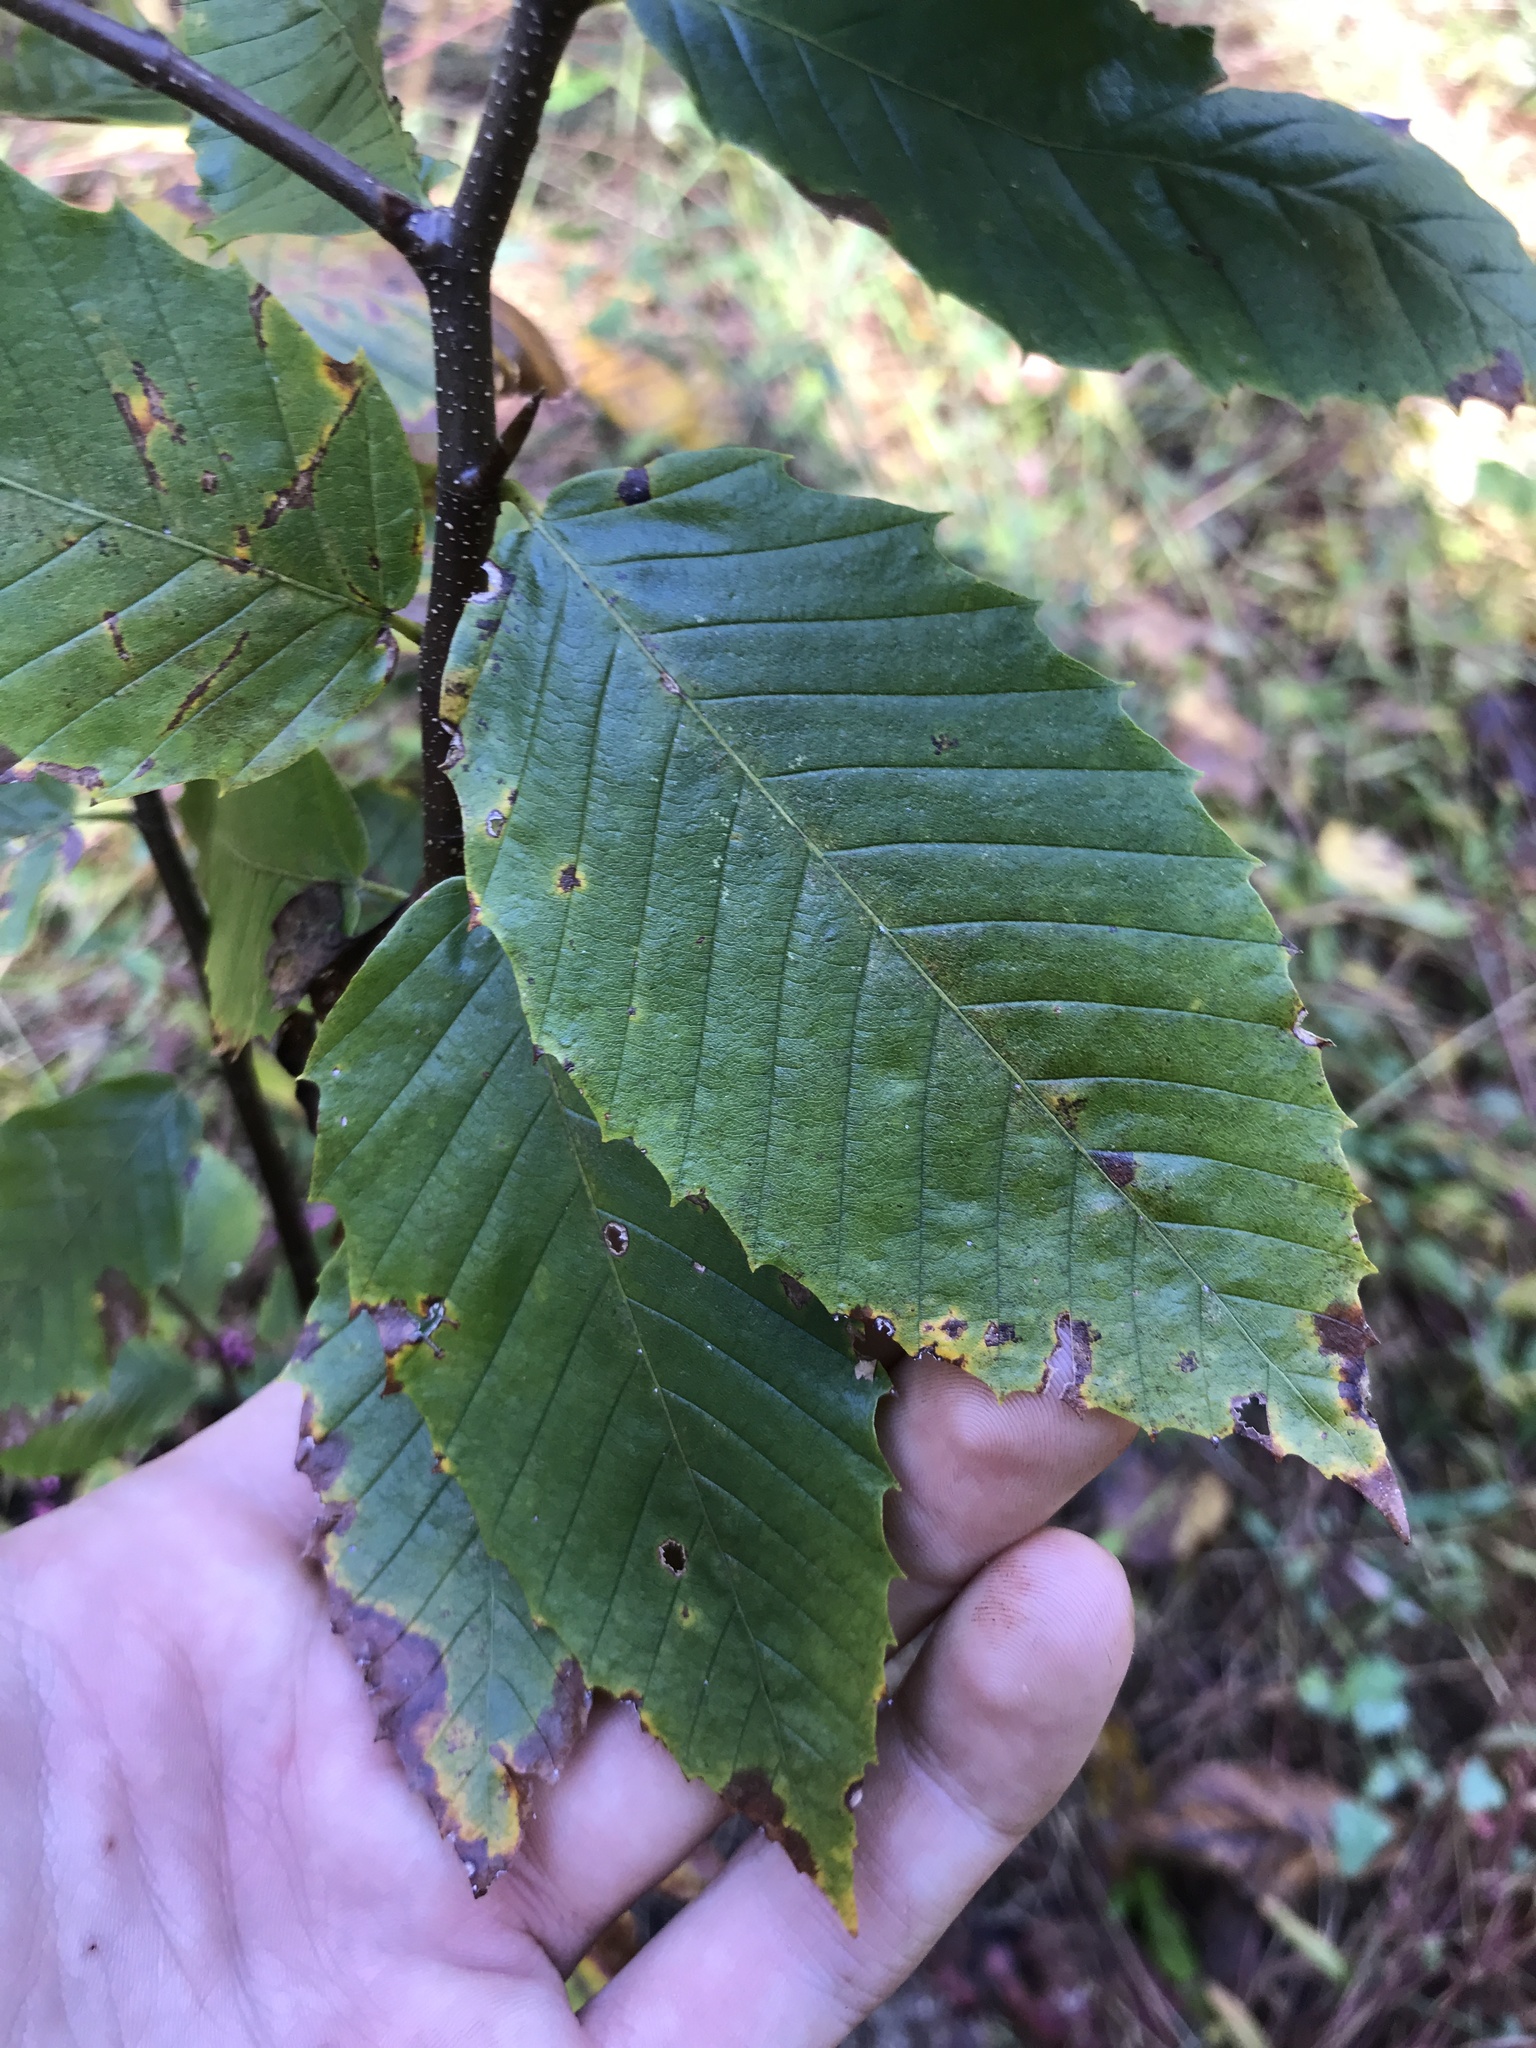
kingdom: Plantae
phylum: Tracheophyta
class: Magnoliopsida
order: Fagales
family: Fagaceae
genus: Fagus
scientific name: Fagus grandifolia
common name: American beech
